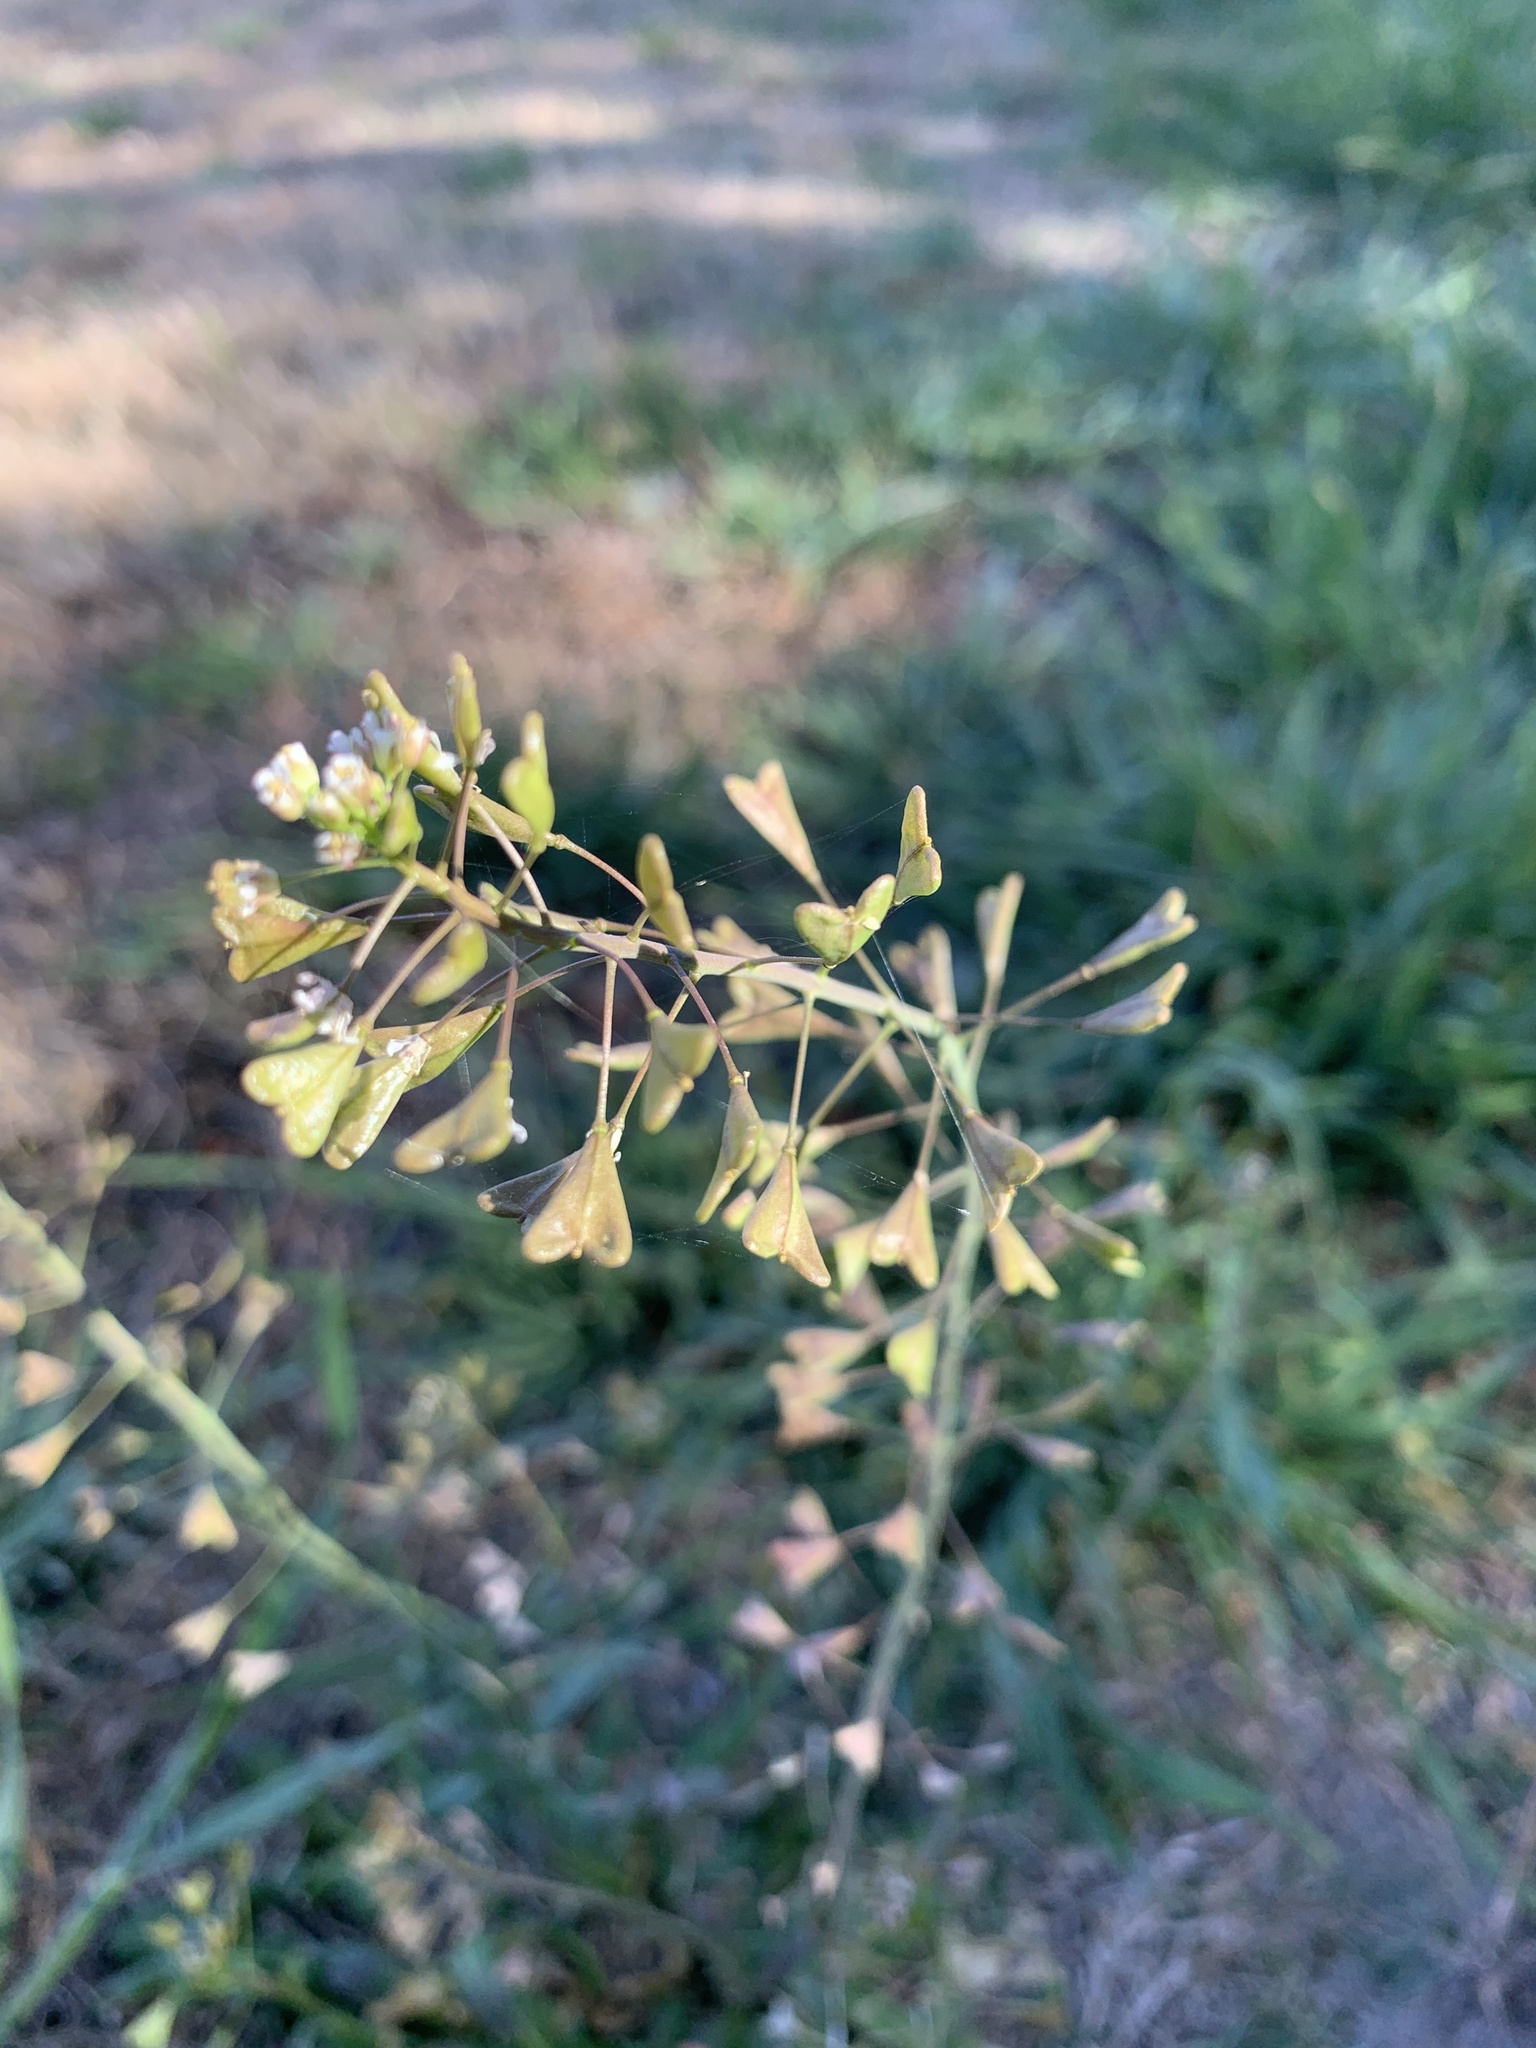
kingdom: Plantae
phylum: Tracheophyta
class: Magnoliopsida
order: Brassicales
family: Brassicaceae
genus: Capsella
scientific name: Capsella bursa-pastoris
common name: Shepherd's purse
